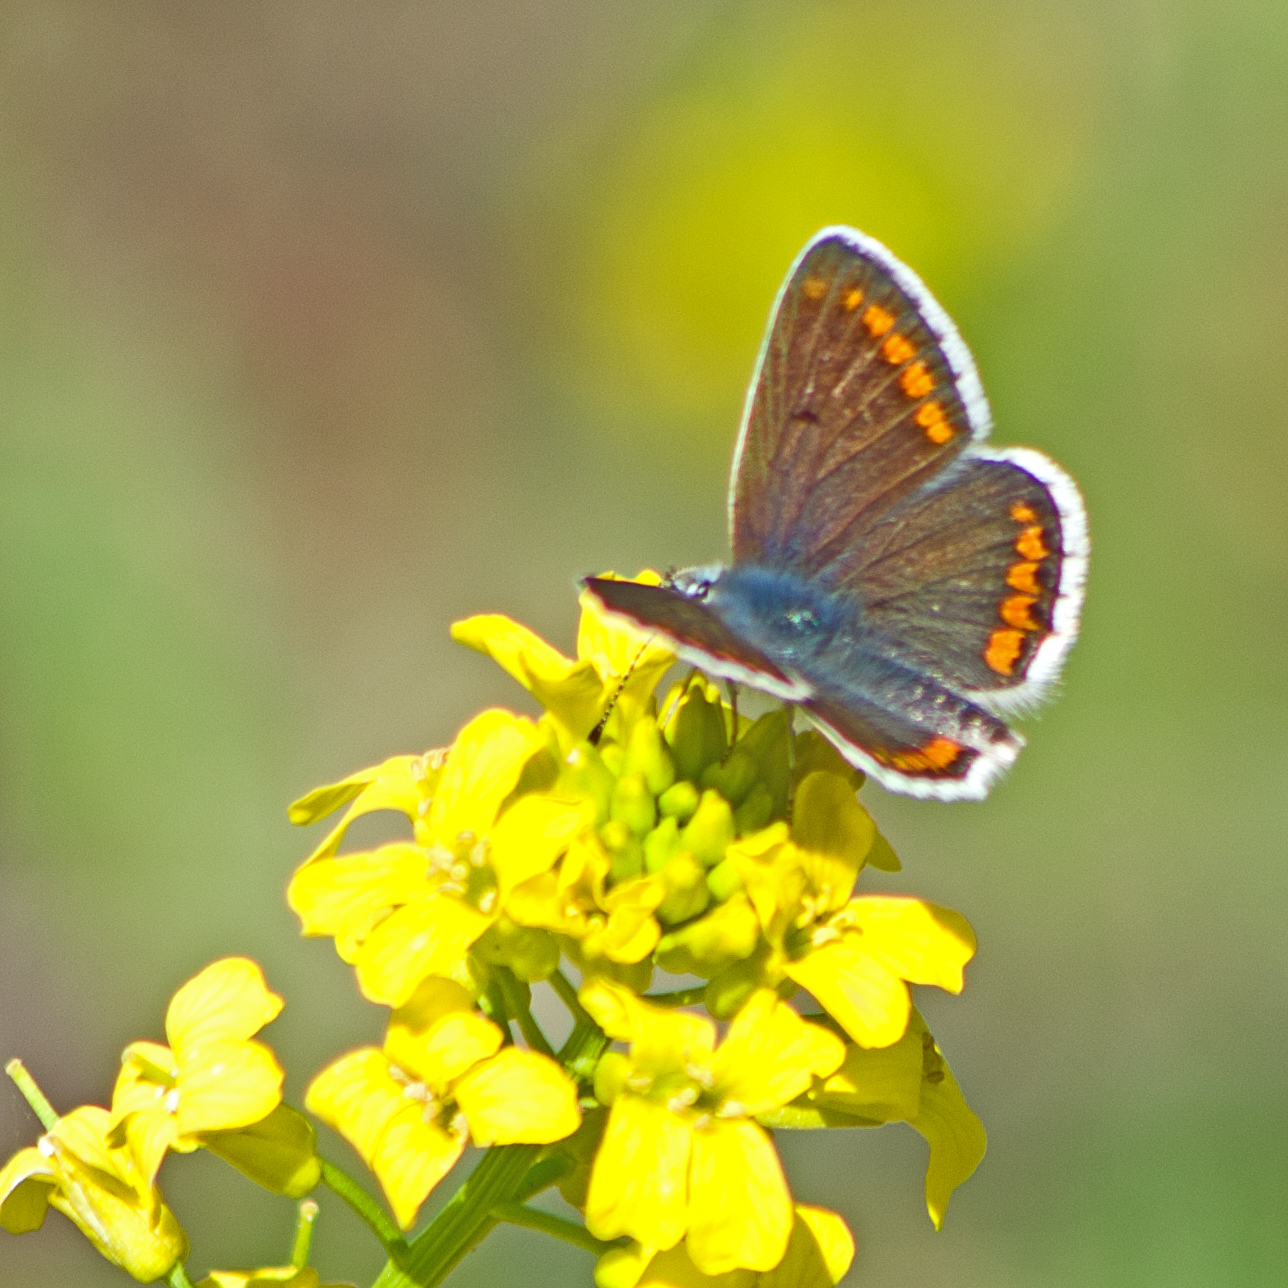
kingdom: Animalia
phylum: Arthropoda
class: Insecta
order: Lepidoptera
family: Lycaenidae
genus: Aricia
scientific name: Aricia agestis
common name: Brown argus
